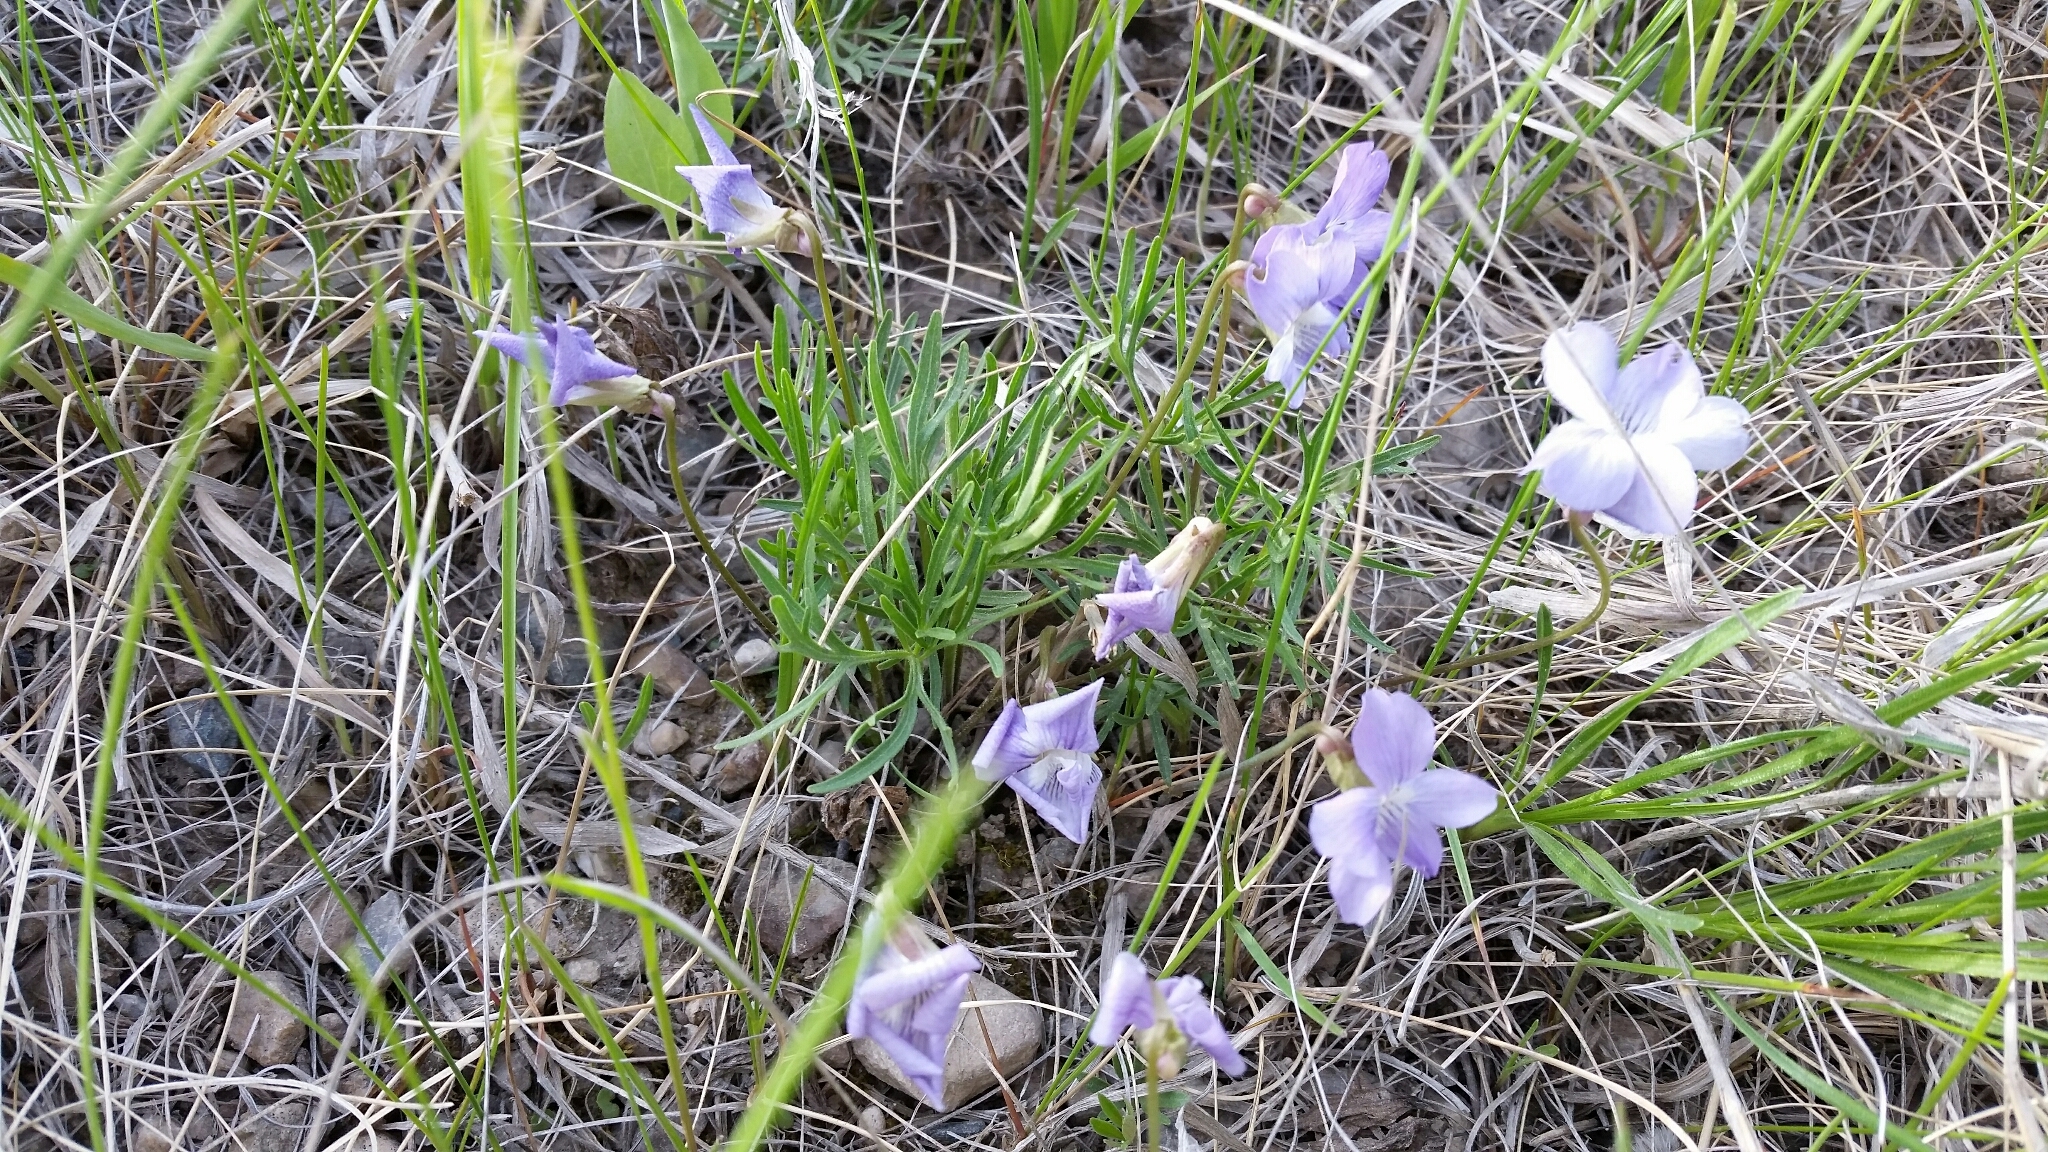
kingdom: Plantae
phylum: Tracheophyta
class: Magnoliopsida
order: Malpighiales
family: Violaceae
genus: Viola
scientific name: Viola pedatifida
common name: Prairie violet
